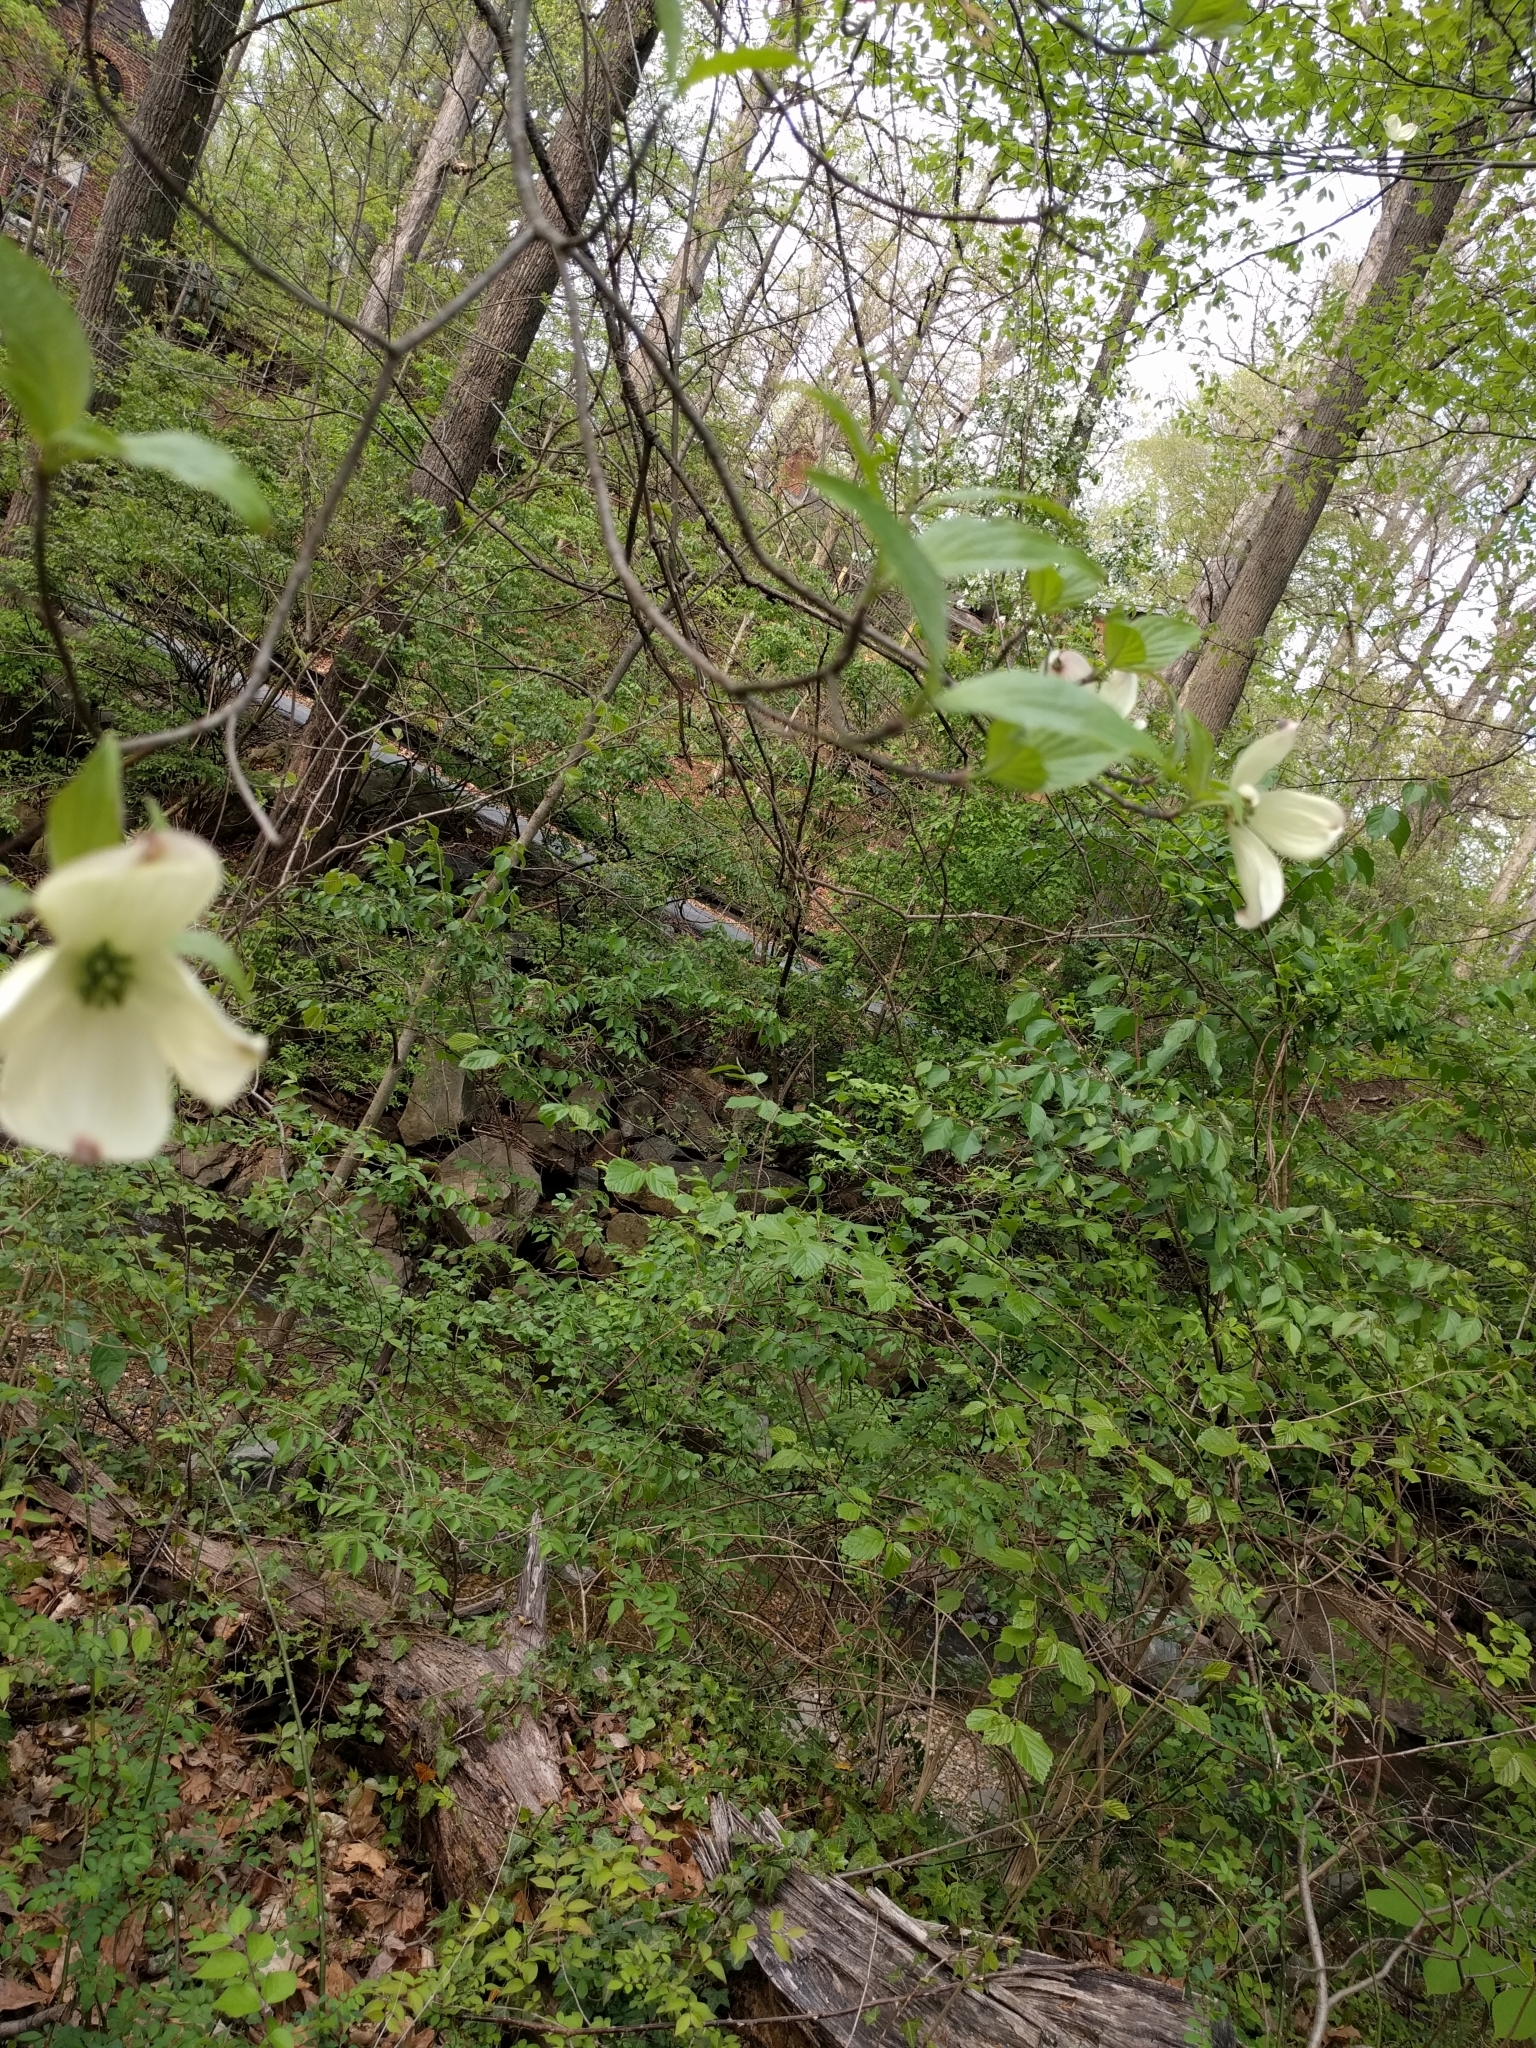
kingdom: Plantae
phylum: Tracheophyta
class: Magnoliopsida
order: Cornales
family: Cornaceae
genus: Cornus
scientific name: Cornus florida
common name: Flowering dogwood
